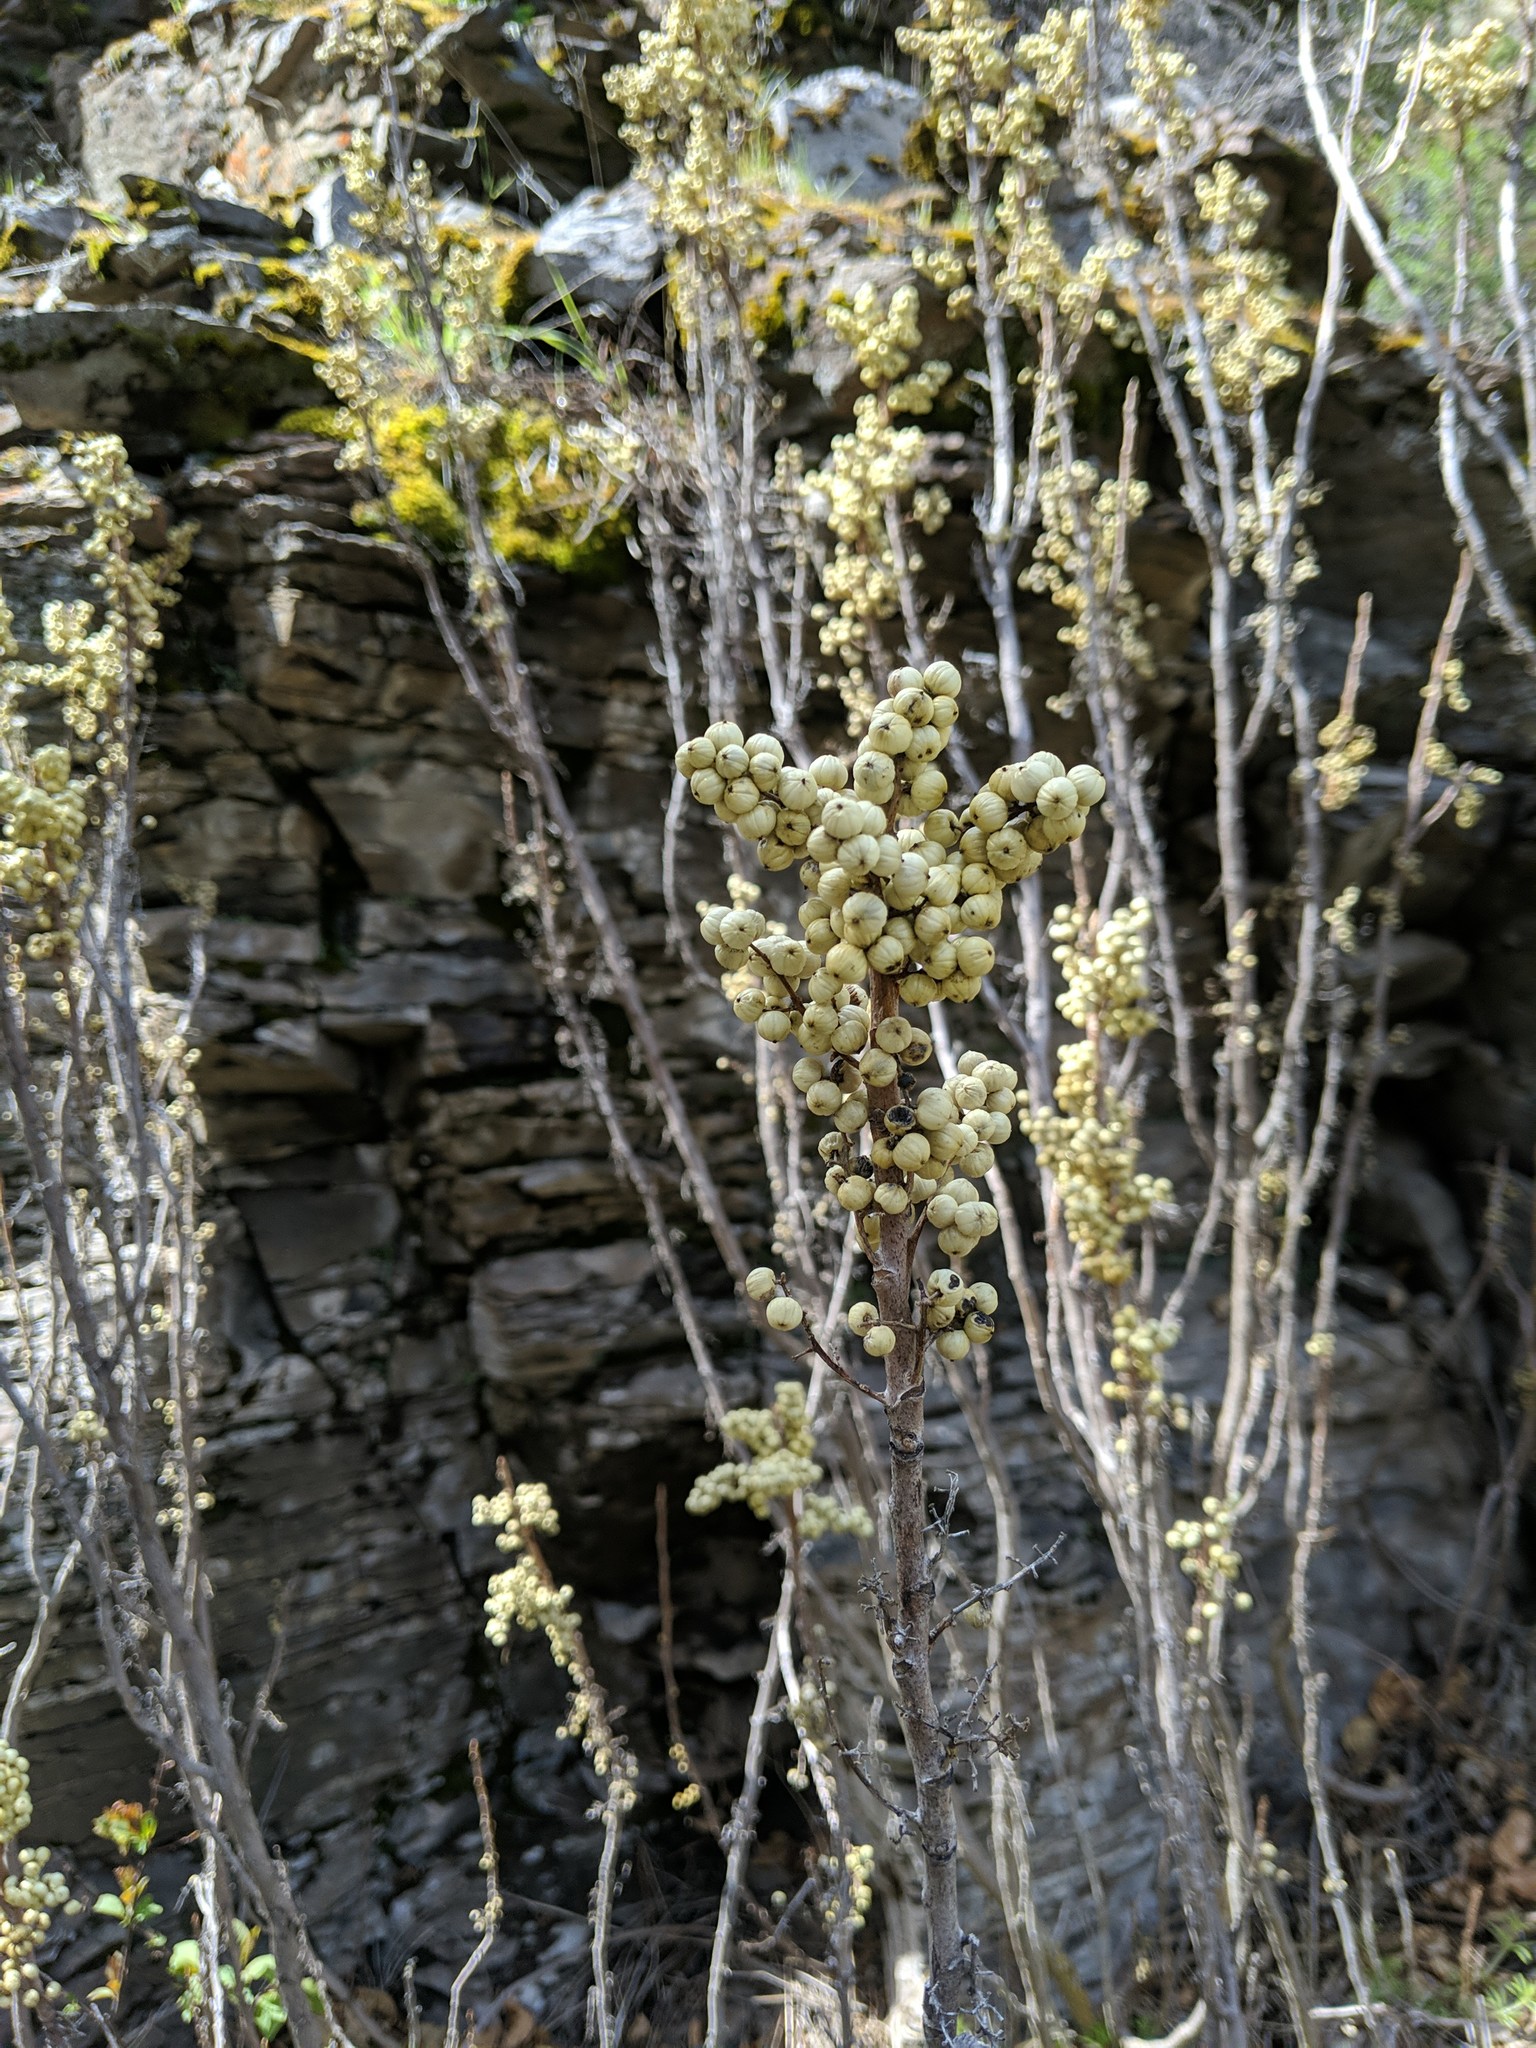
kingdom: Plantae
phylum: Tracheophyta
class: Magnoliopsida
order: Sapindales
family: Anacardiaceae
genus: Toxicodendron
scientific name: Toxicodendron rydbergii
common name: Rydberg's poison-ivy
